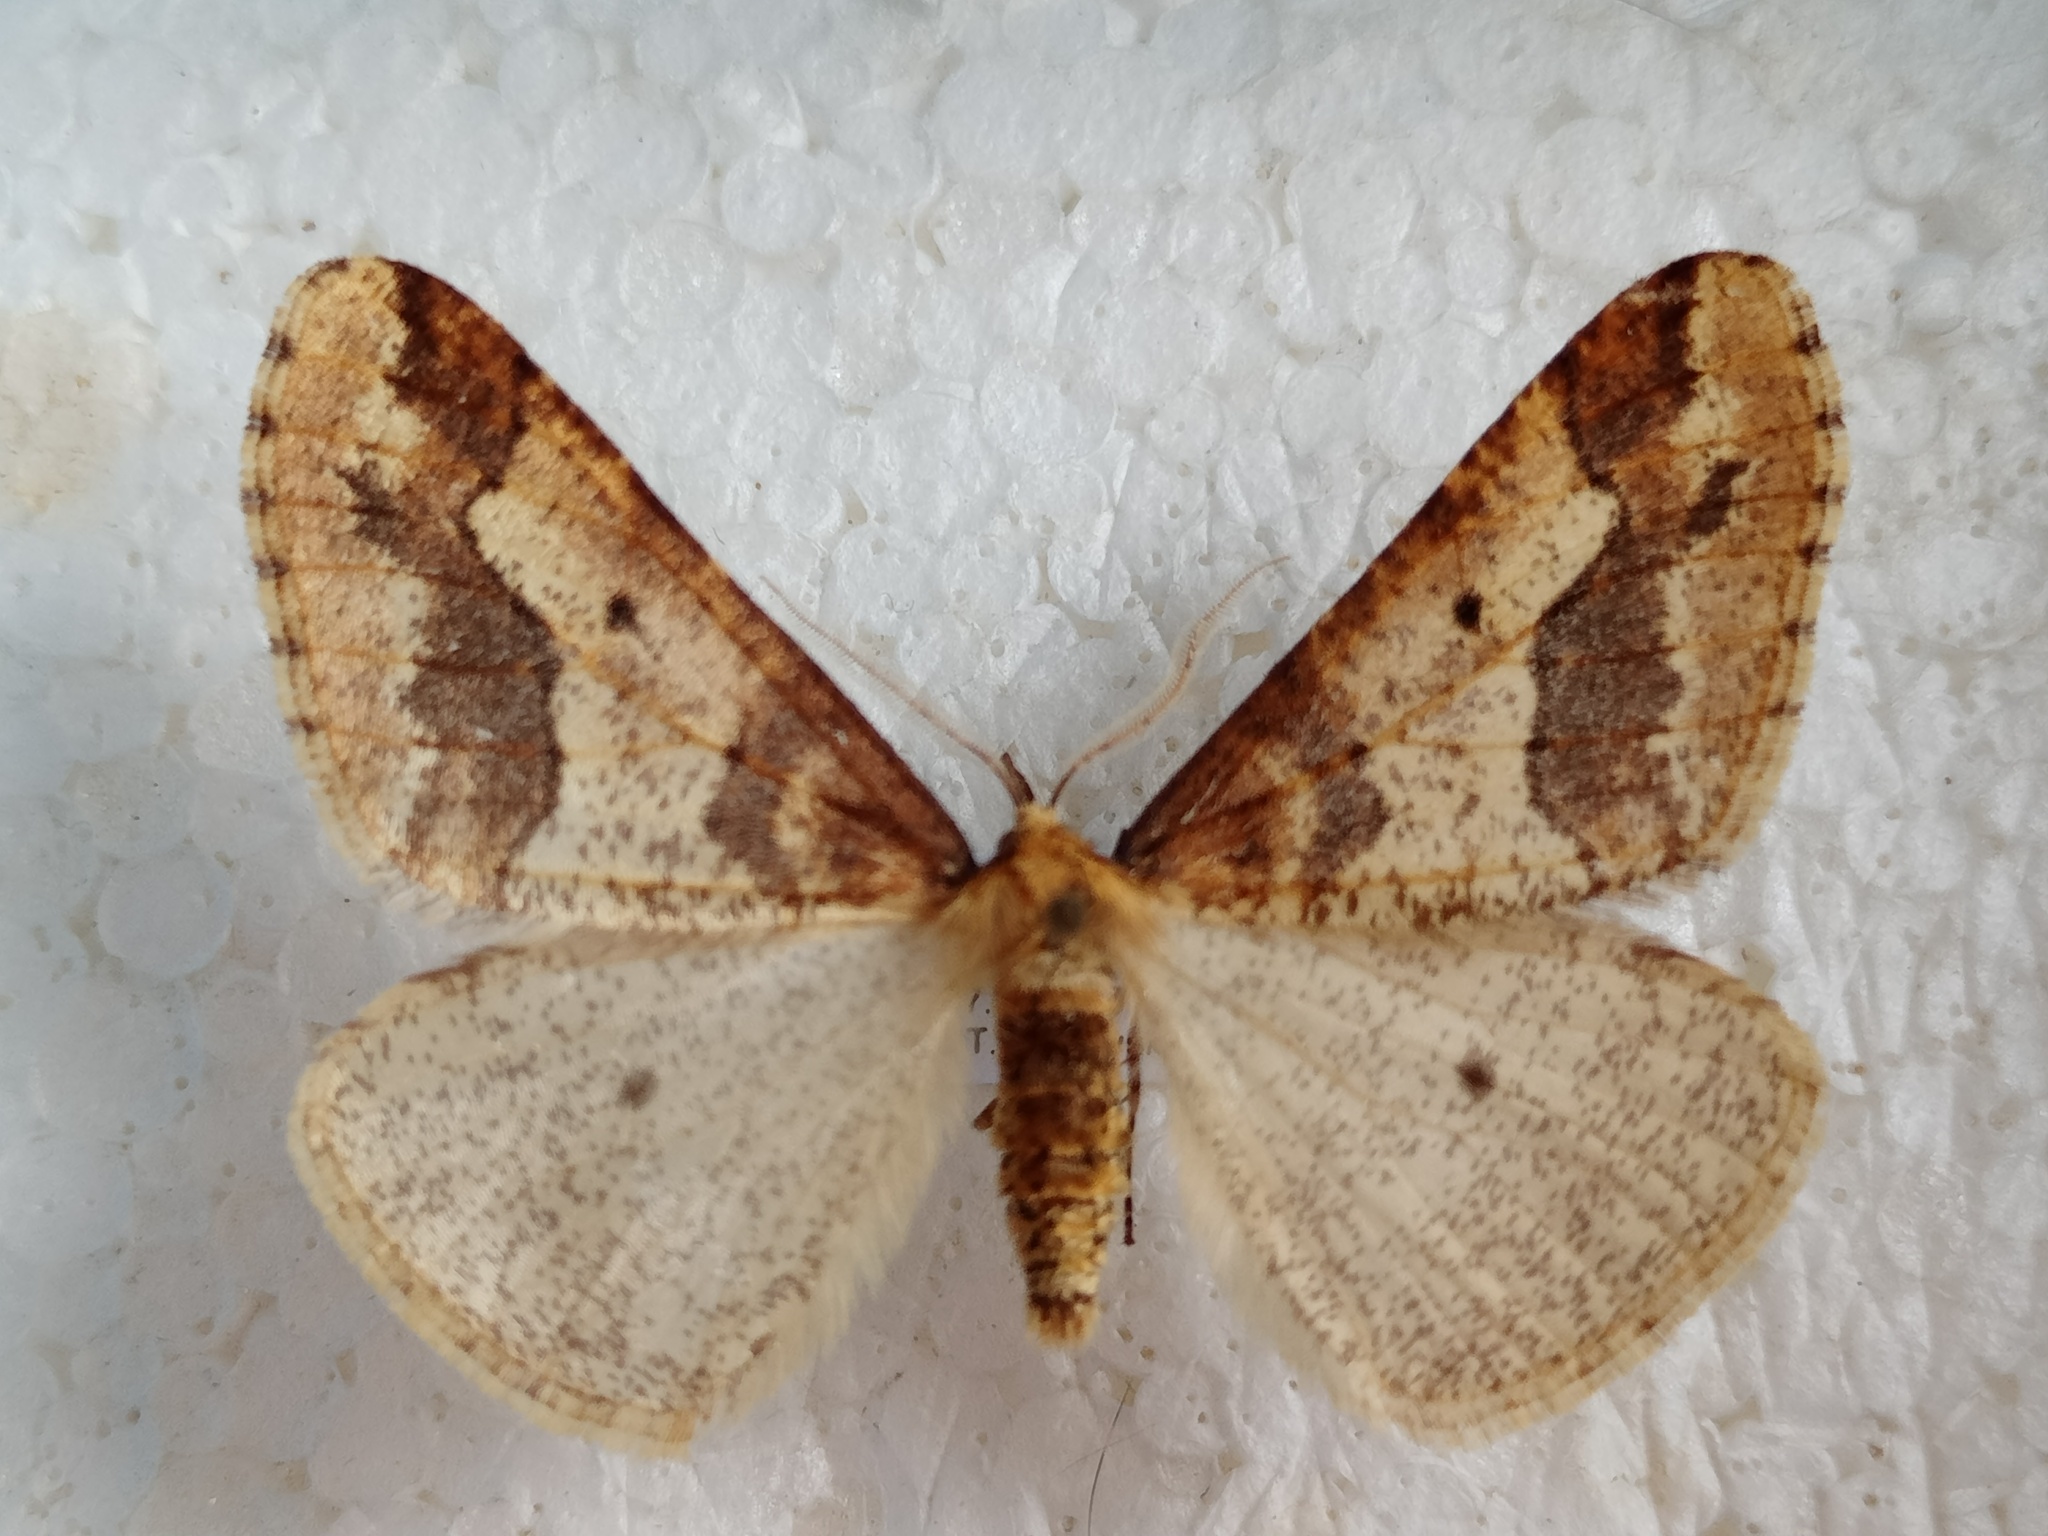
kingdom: Animalia
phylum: Arthropoda
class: Insecta
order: Lepidoptera
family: Geometridae
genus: Erannis
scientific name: Erannis defoliaria
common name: Mottled umber
